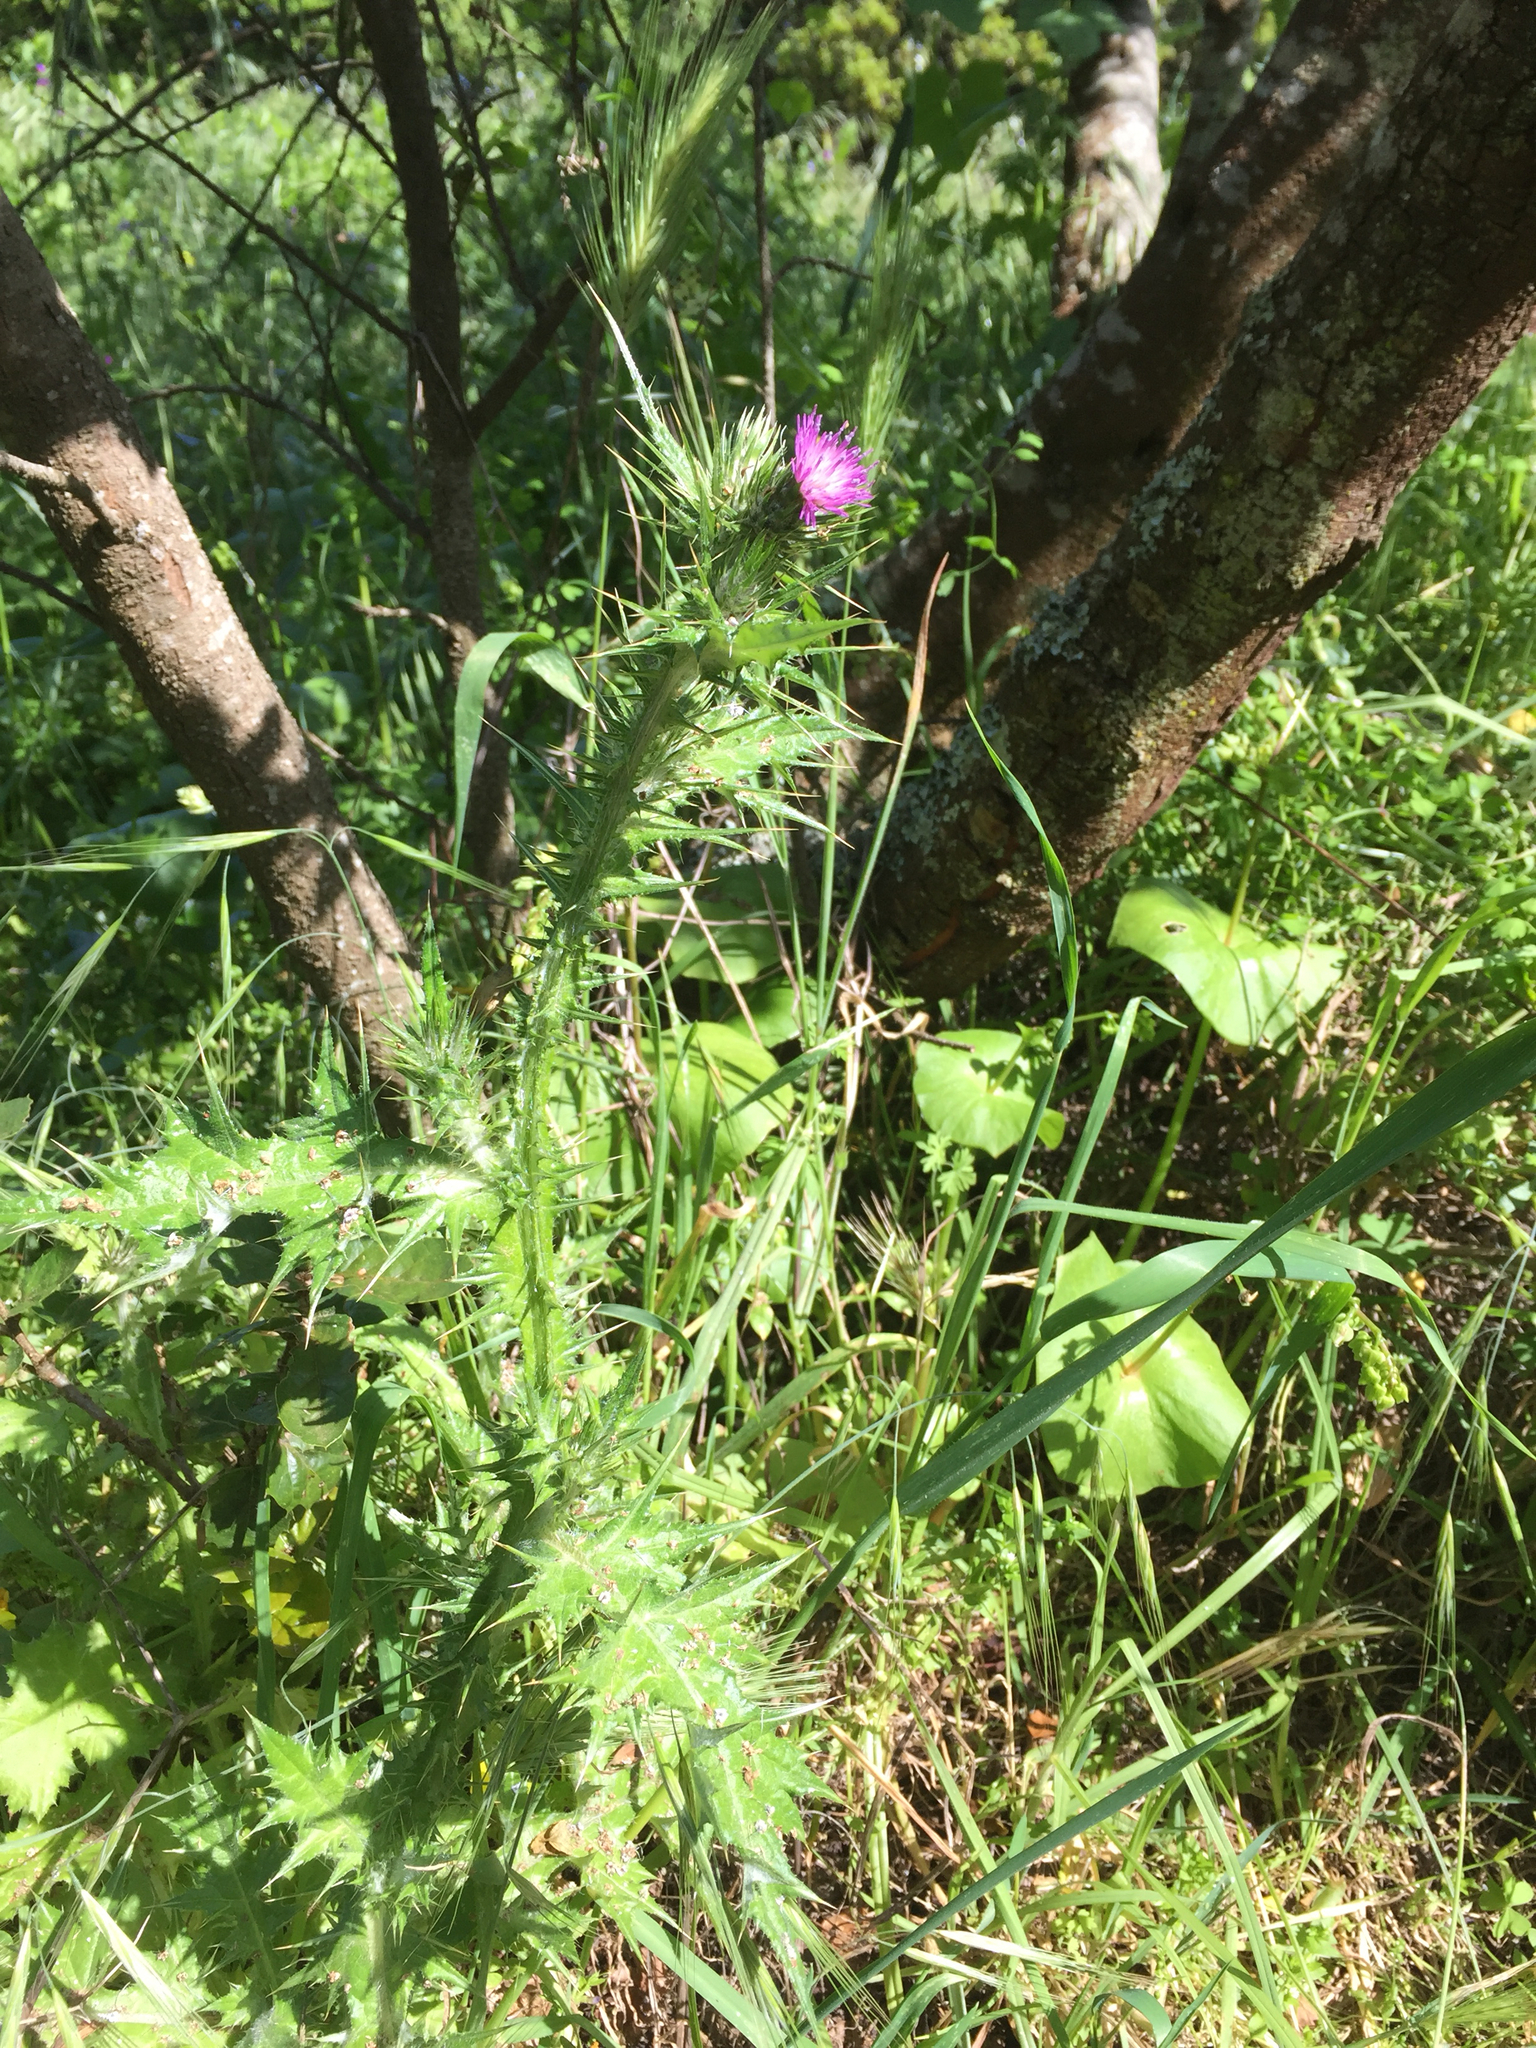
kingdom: Plantae
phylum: Tracheophyta
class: Magnoliopsida
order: Asterales
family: Asteraceae
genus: Carduus
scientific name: Carduus pycnocephalus
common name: Plymouth thistle
